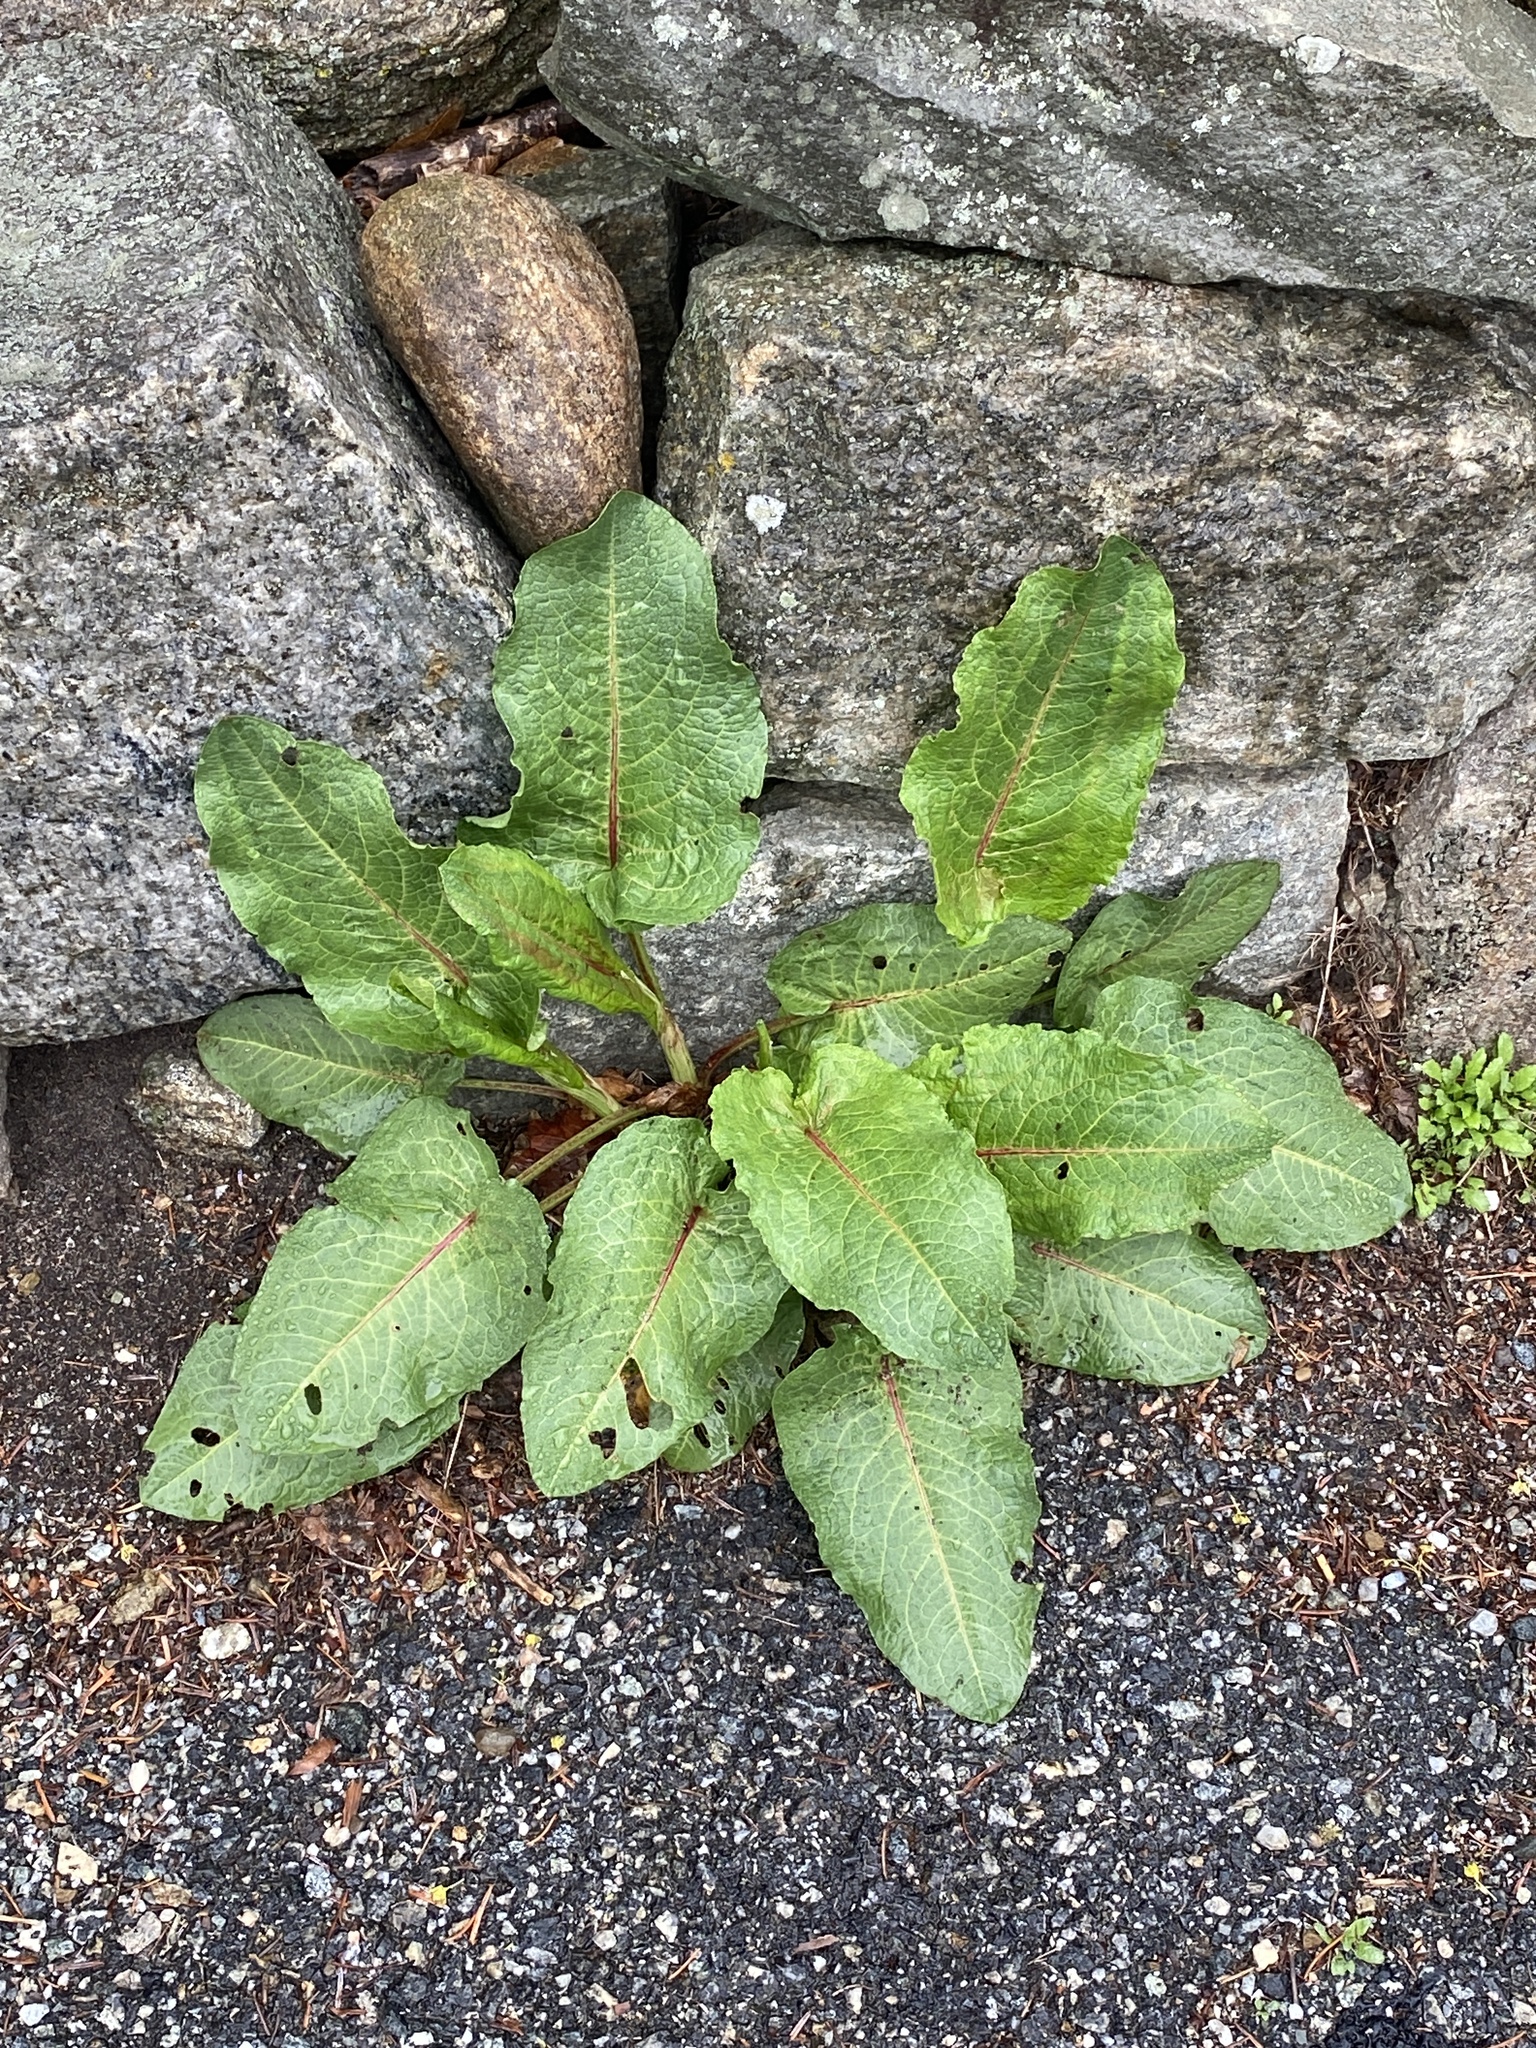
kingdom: Plantae
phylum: Tracheophyta
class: Magnoliopsida
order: Caryophyllales
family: Polygonaceae
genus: Rumex
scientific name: Rumex obtusifolius
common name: Bitter dock
